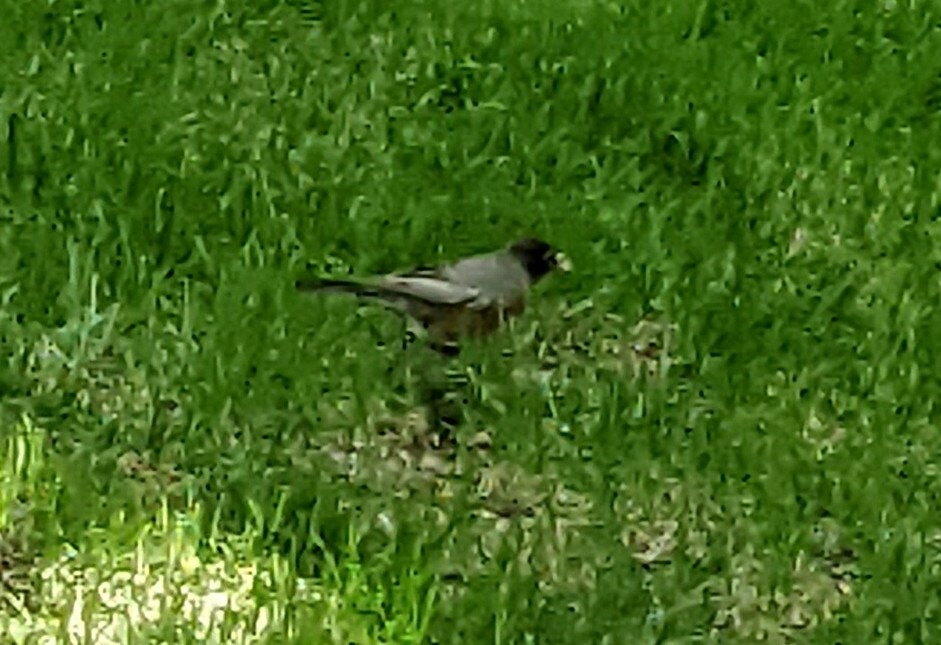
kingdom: Animalia
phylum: Chordata
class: Aves
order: Passeriformes
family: Turdidae
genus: Turdus
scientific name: Turdus migratorius
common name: American robin
